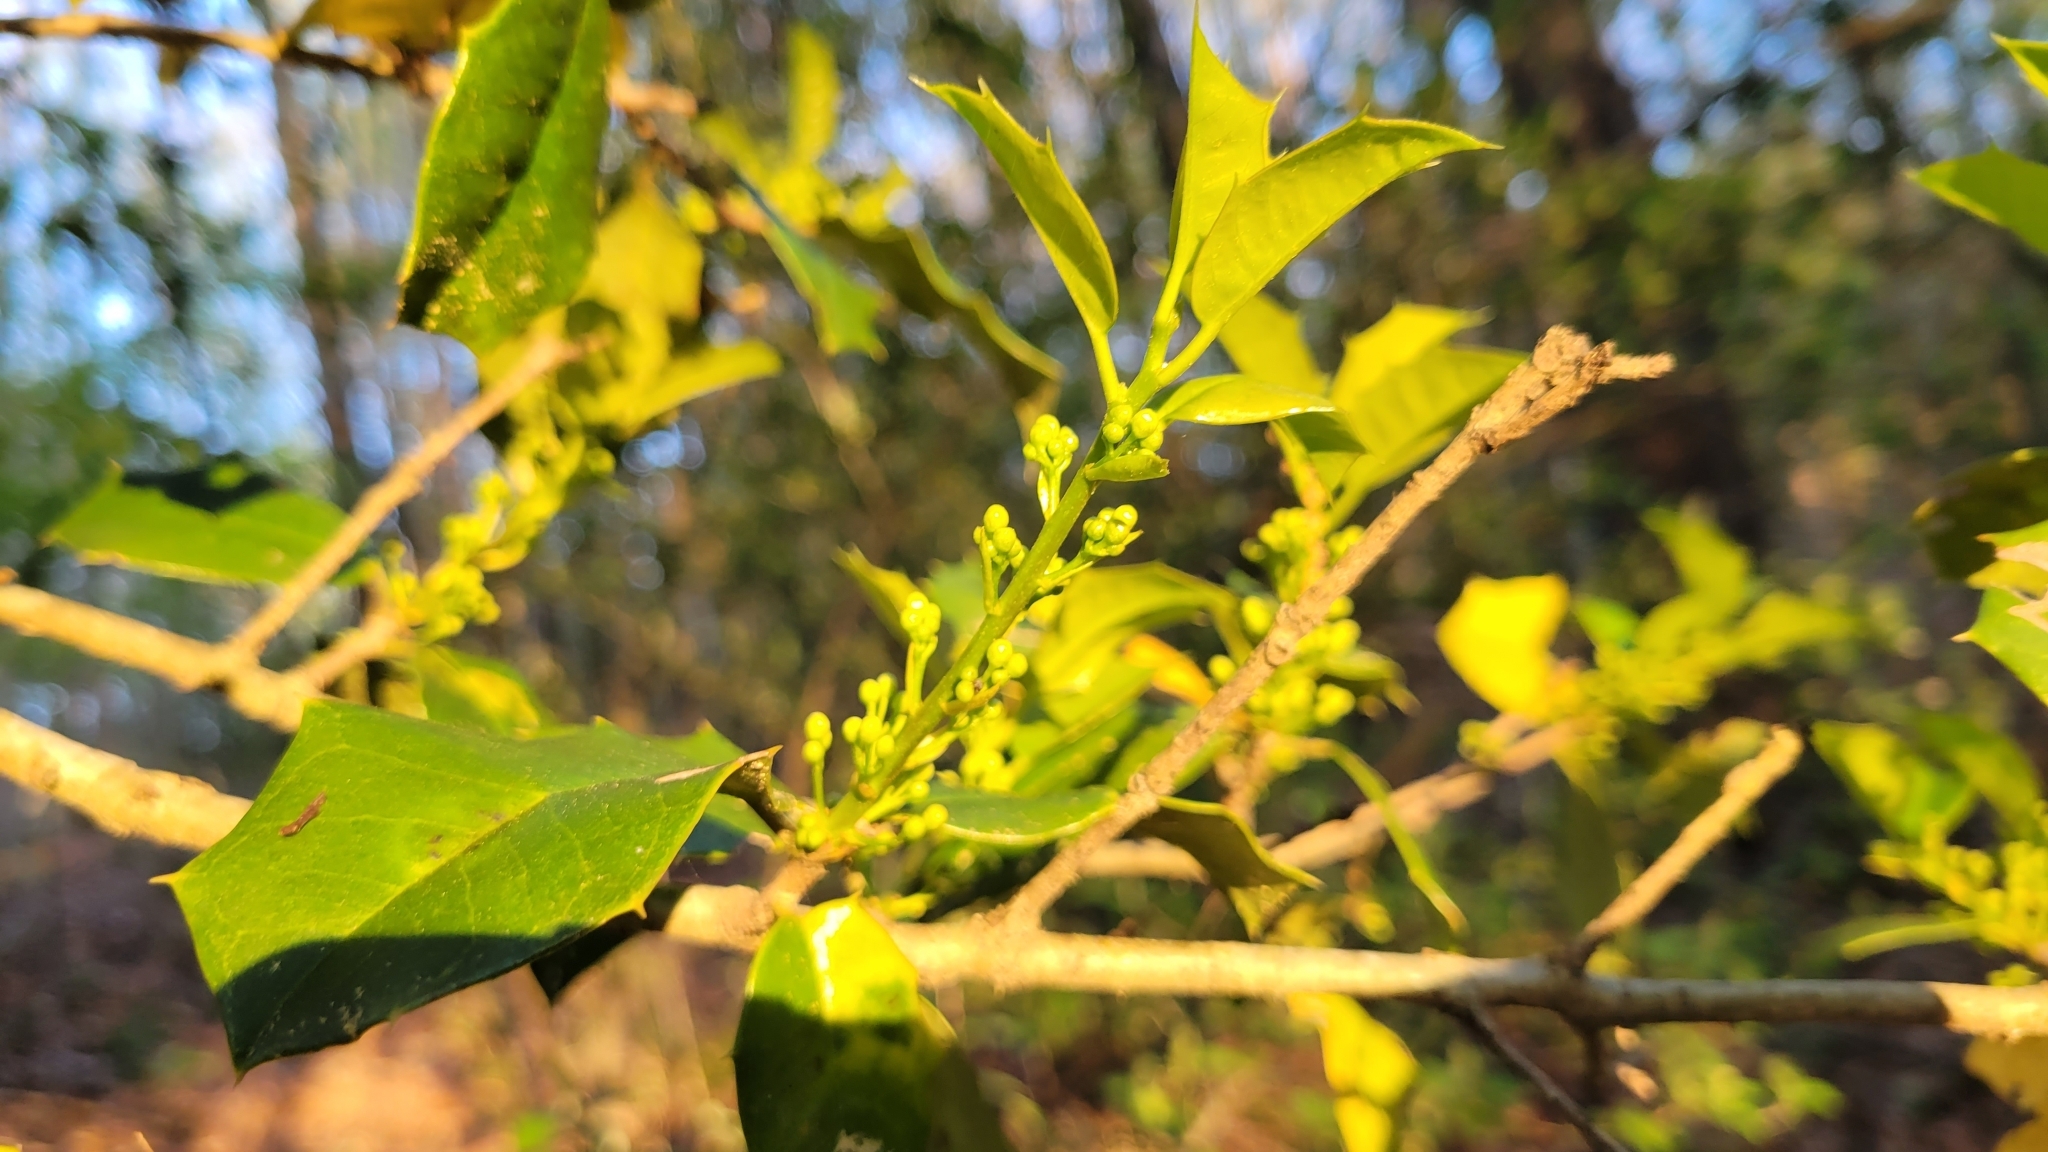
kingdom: Plantae
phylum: Tracheophyta
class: Magnoliopsida
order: Aquifoliales
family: Aquifoliaceae
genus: Ilex
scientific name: Ilex opaca
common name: American holly
